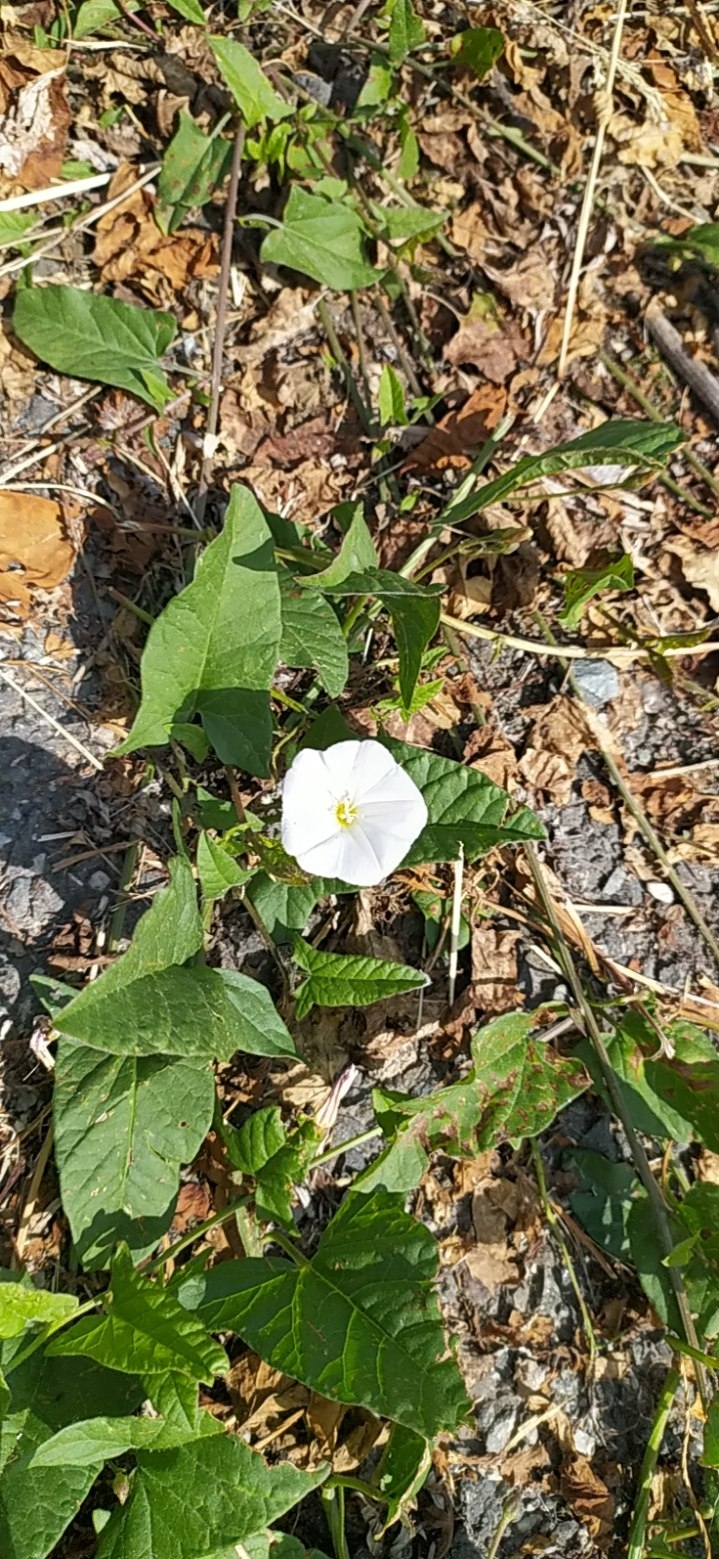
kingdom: Plantae
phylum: Tracheophyta
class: Magnoliopsida
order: Solanales
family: Convolvulaceae
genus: Convolvulus
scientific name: Convolvulus arvensis
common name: Field bindweed
